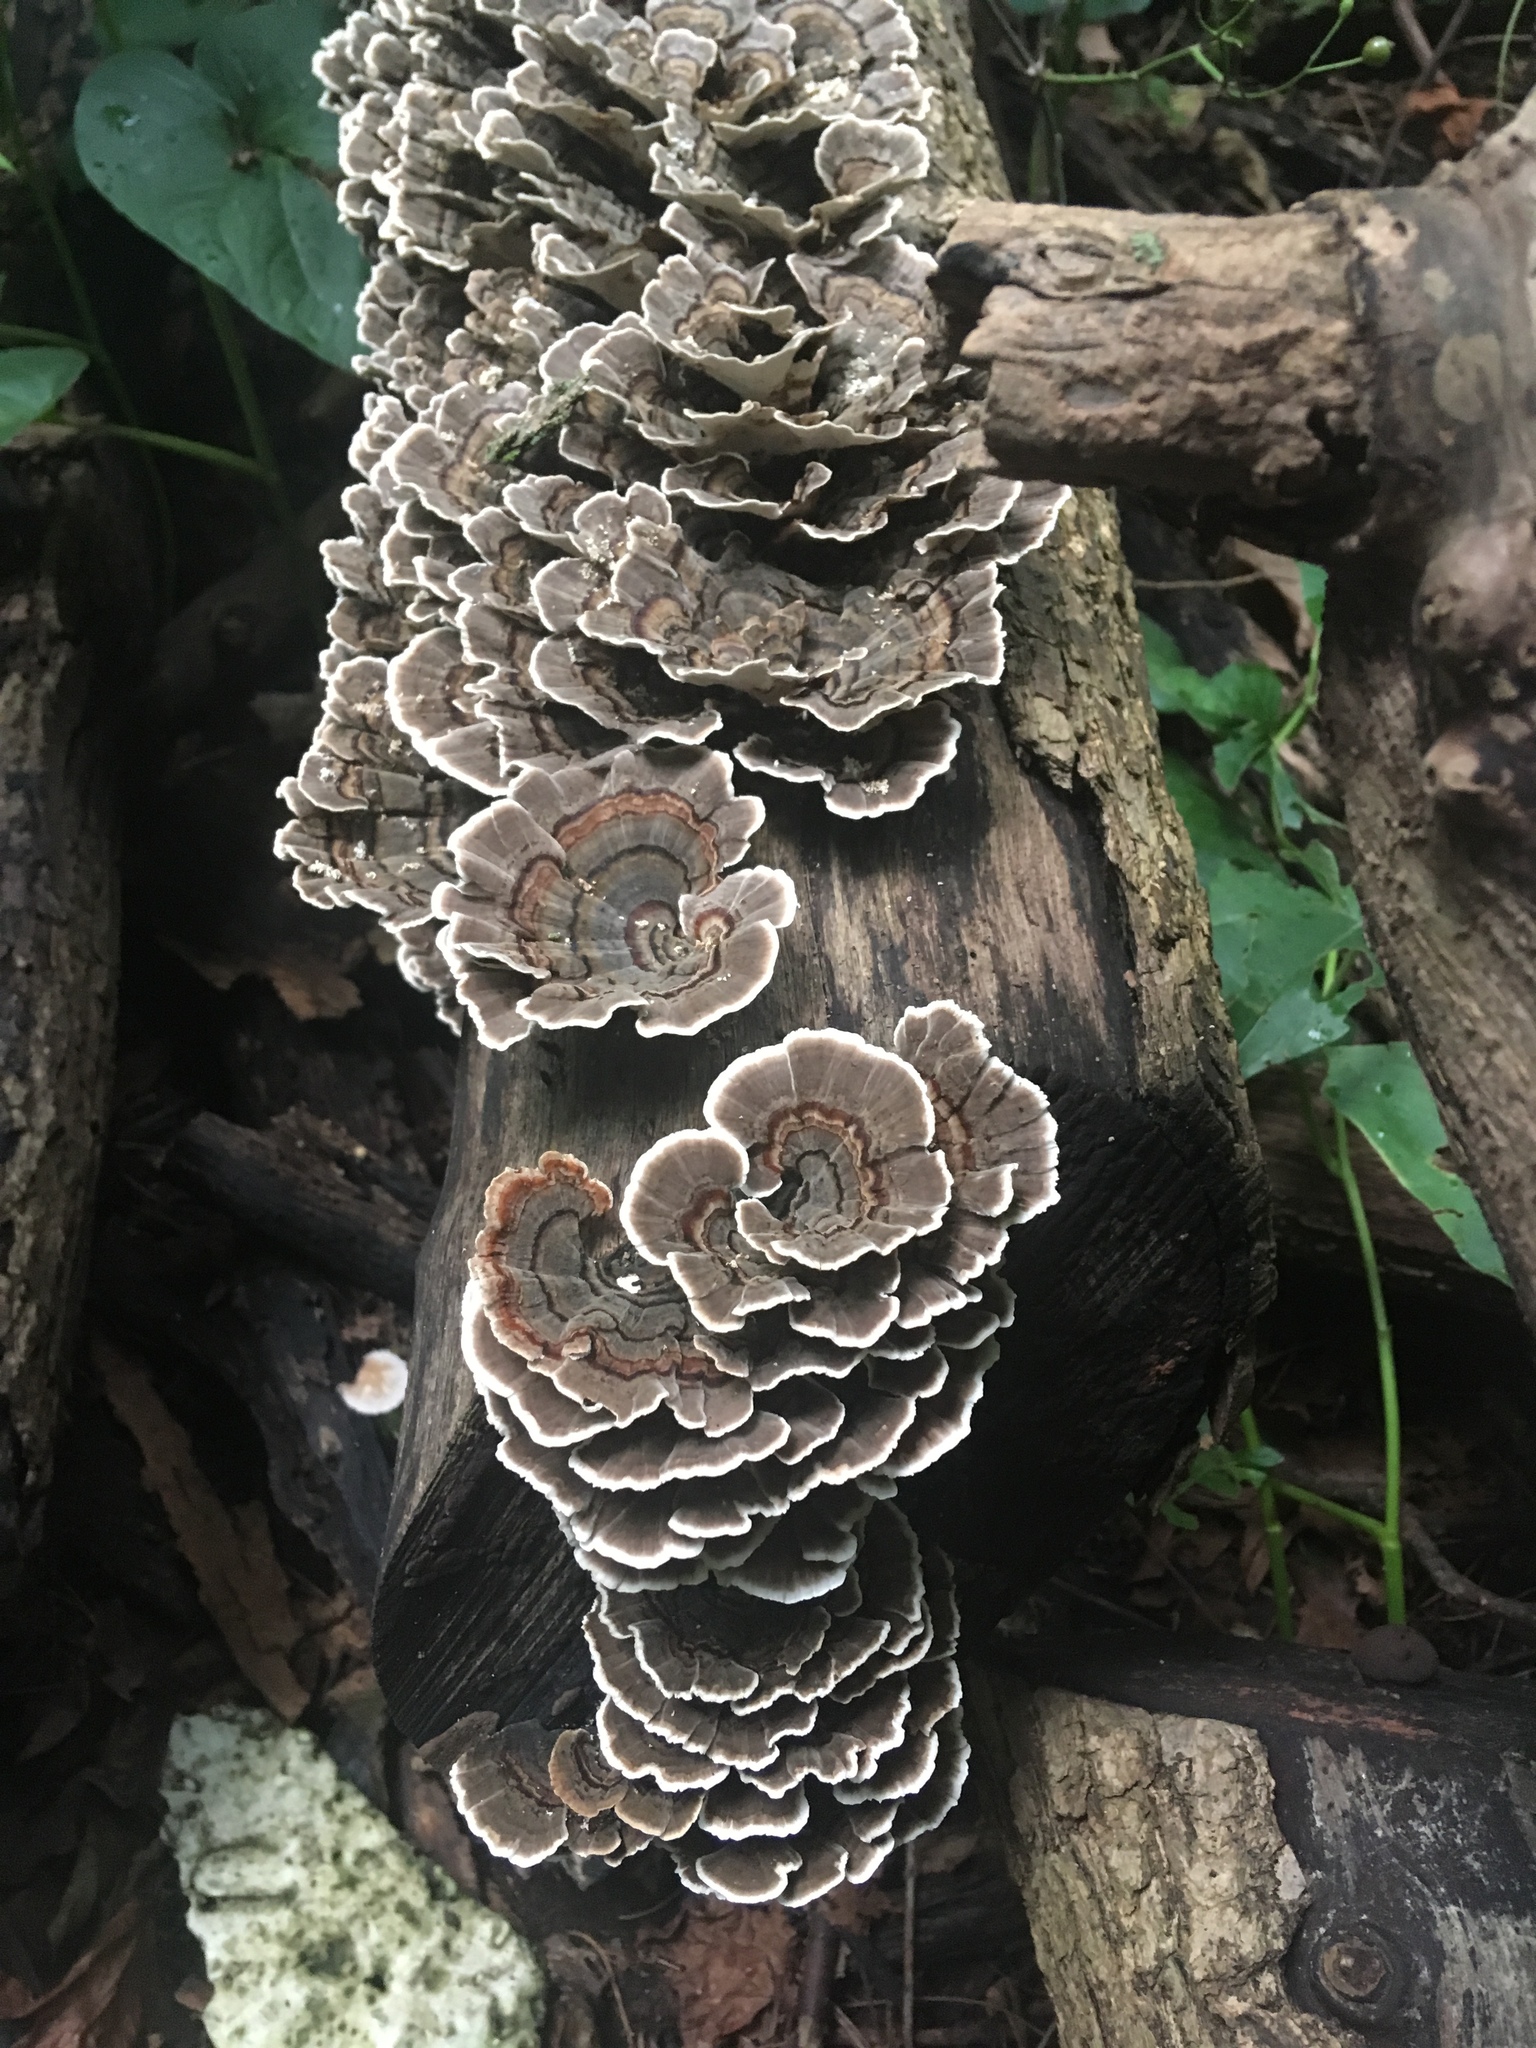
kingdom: Fungi
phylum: Basidiomycota
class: Agaricomycetes
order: Polyporales
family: Polyporaceae
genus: Trametes
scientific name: Trametes versicolor
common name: Turkeytail
